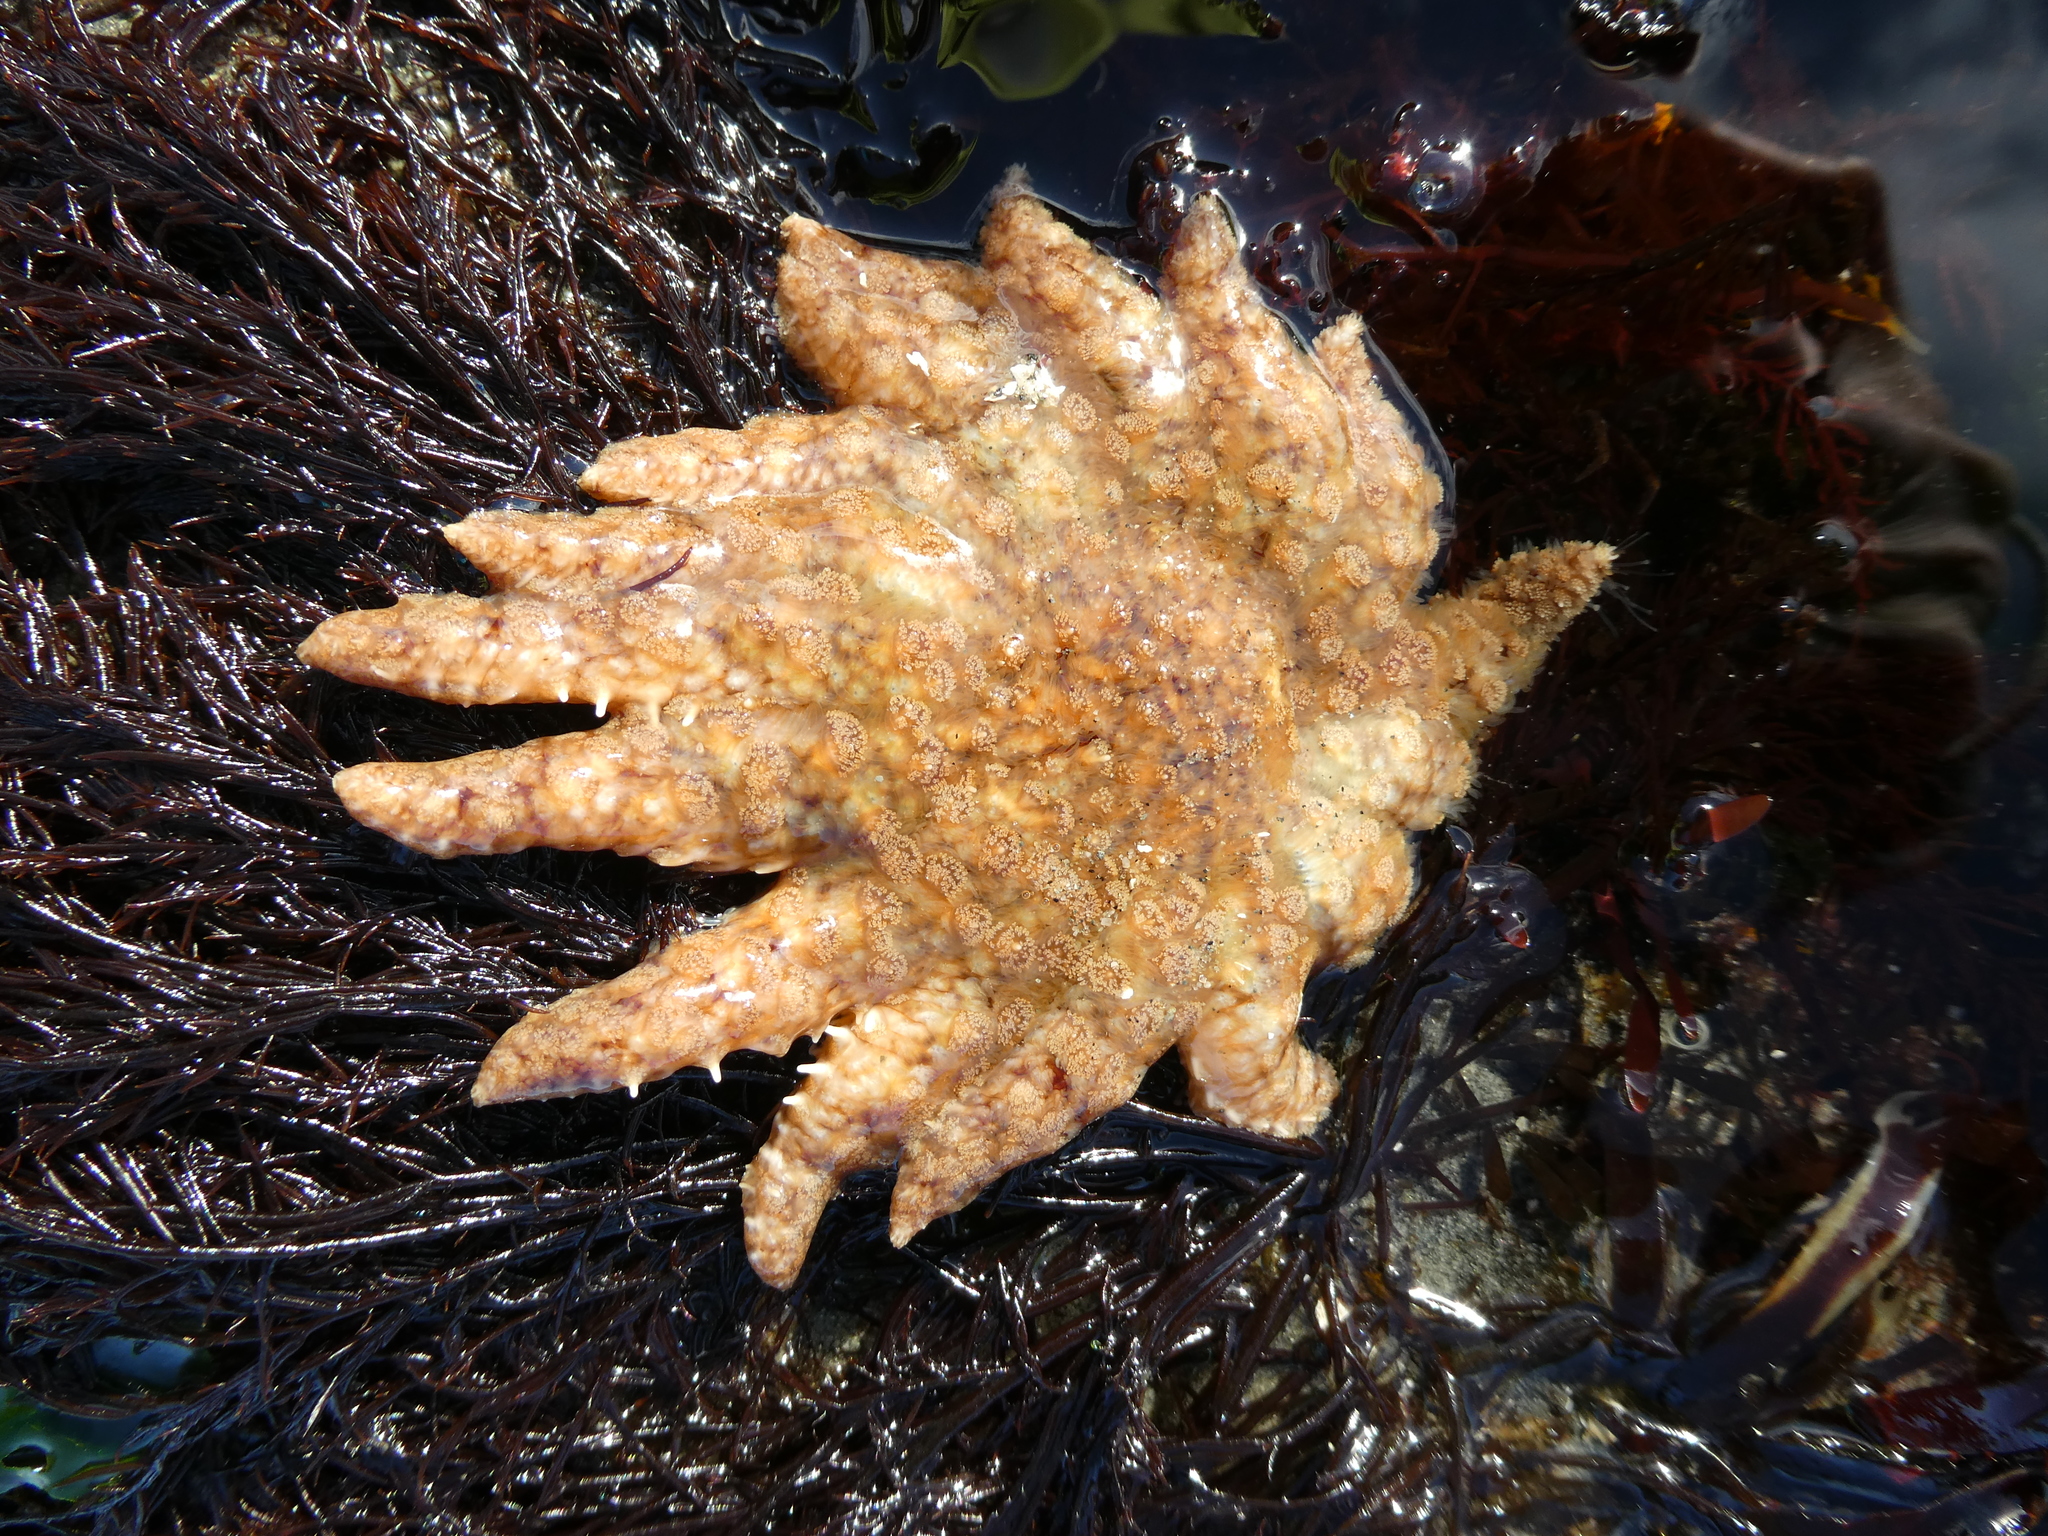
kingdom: Animalia
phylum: Echinodermata
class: Asteroidea
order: Forcipulatida
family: Asteriidae
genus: Pycnopodia
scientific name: Pycnopodia helianthoides
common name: Rag mop
